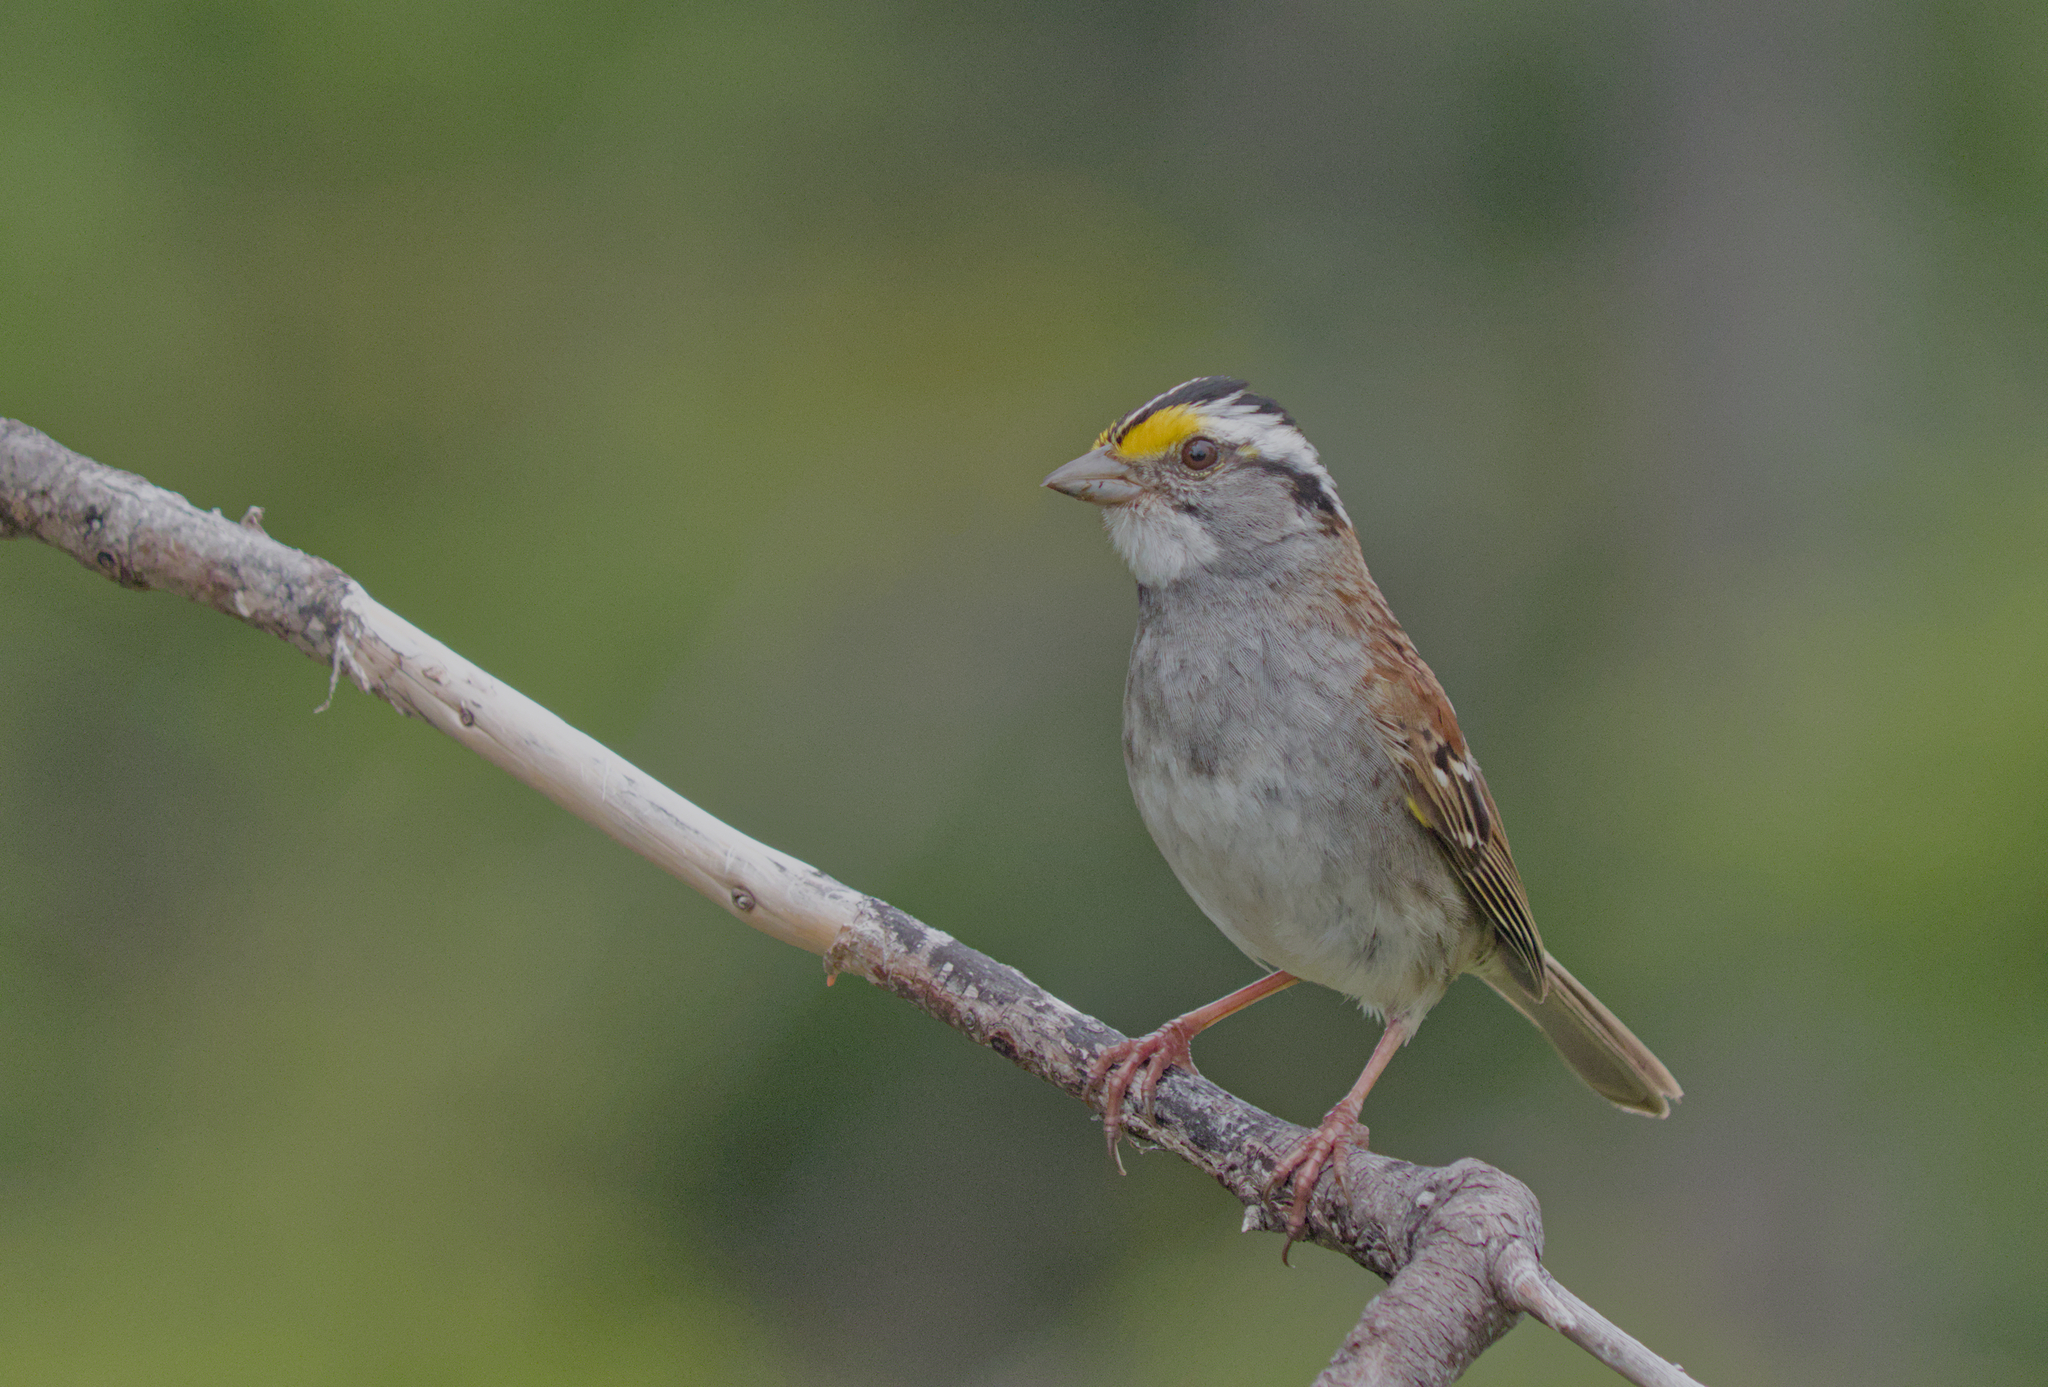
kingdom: Animalia
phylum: Chordata
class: Aves
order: Passeriformes
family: Passerellidae
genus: Zonotrichia
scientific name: Zonotrichia albicollis
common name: White-throated sparrow
